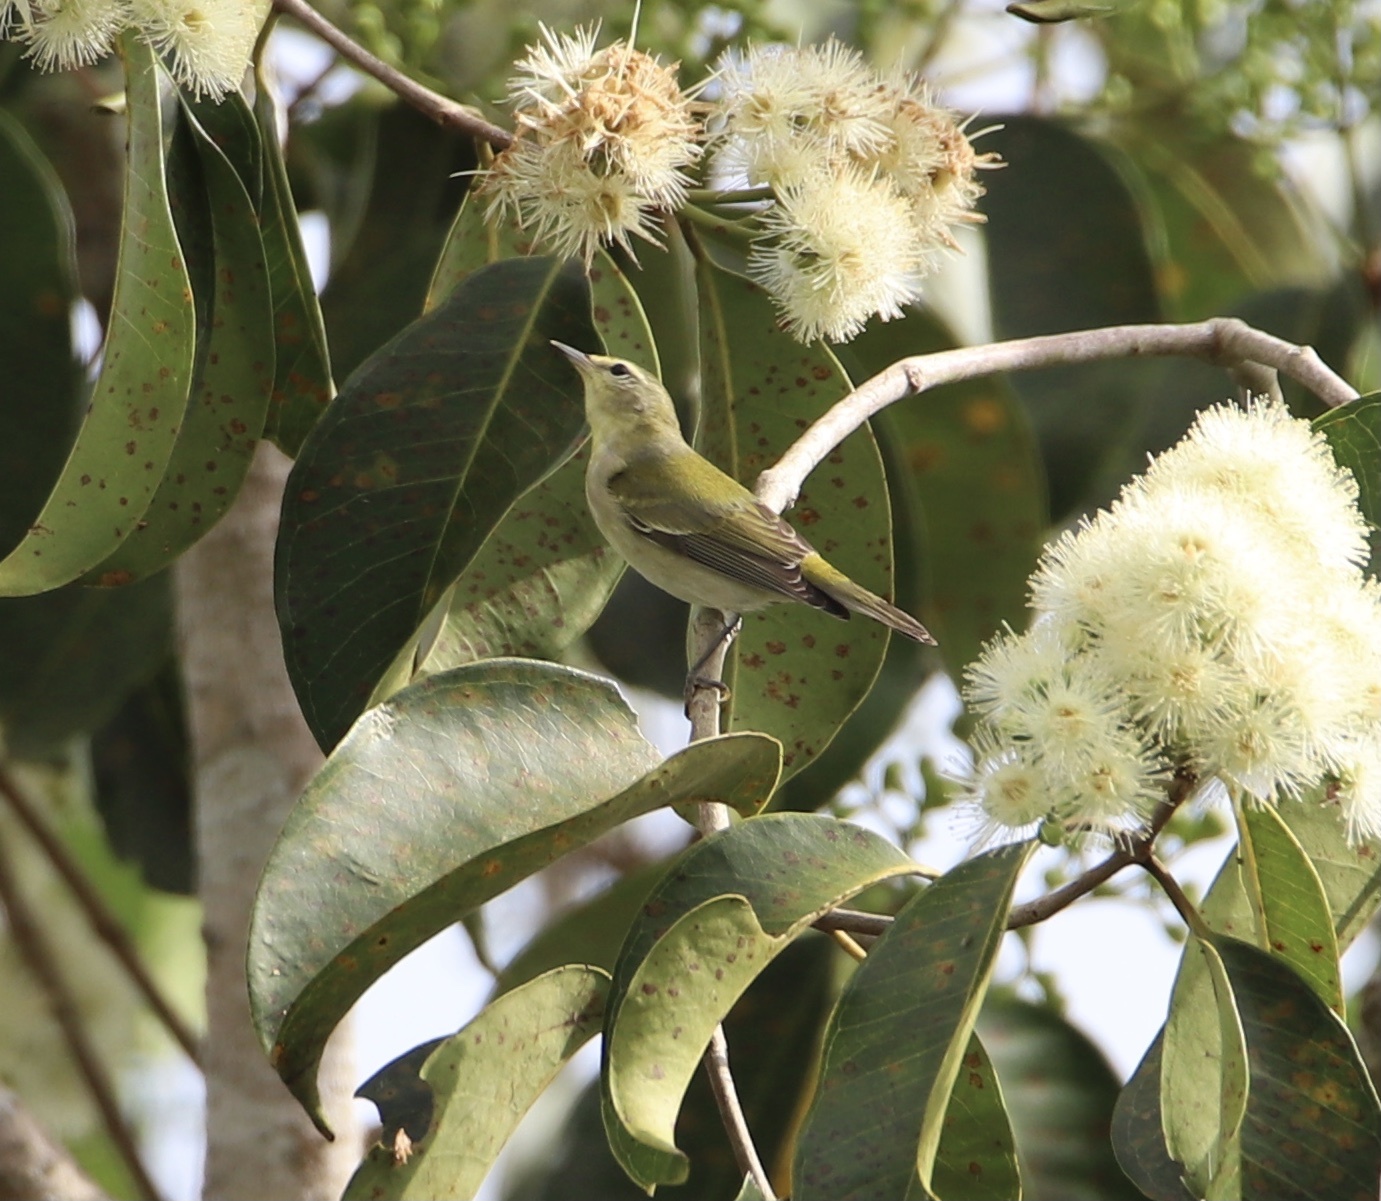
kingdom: Animalia
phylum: Chordata
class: Aves
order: Passeriformes
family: Parulidae
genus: Leiothlypis
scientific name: Leiothlypis peregrina
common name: Tennessee warbler
